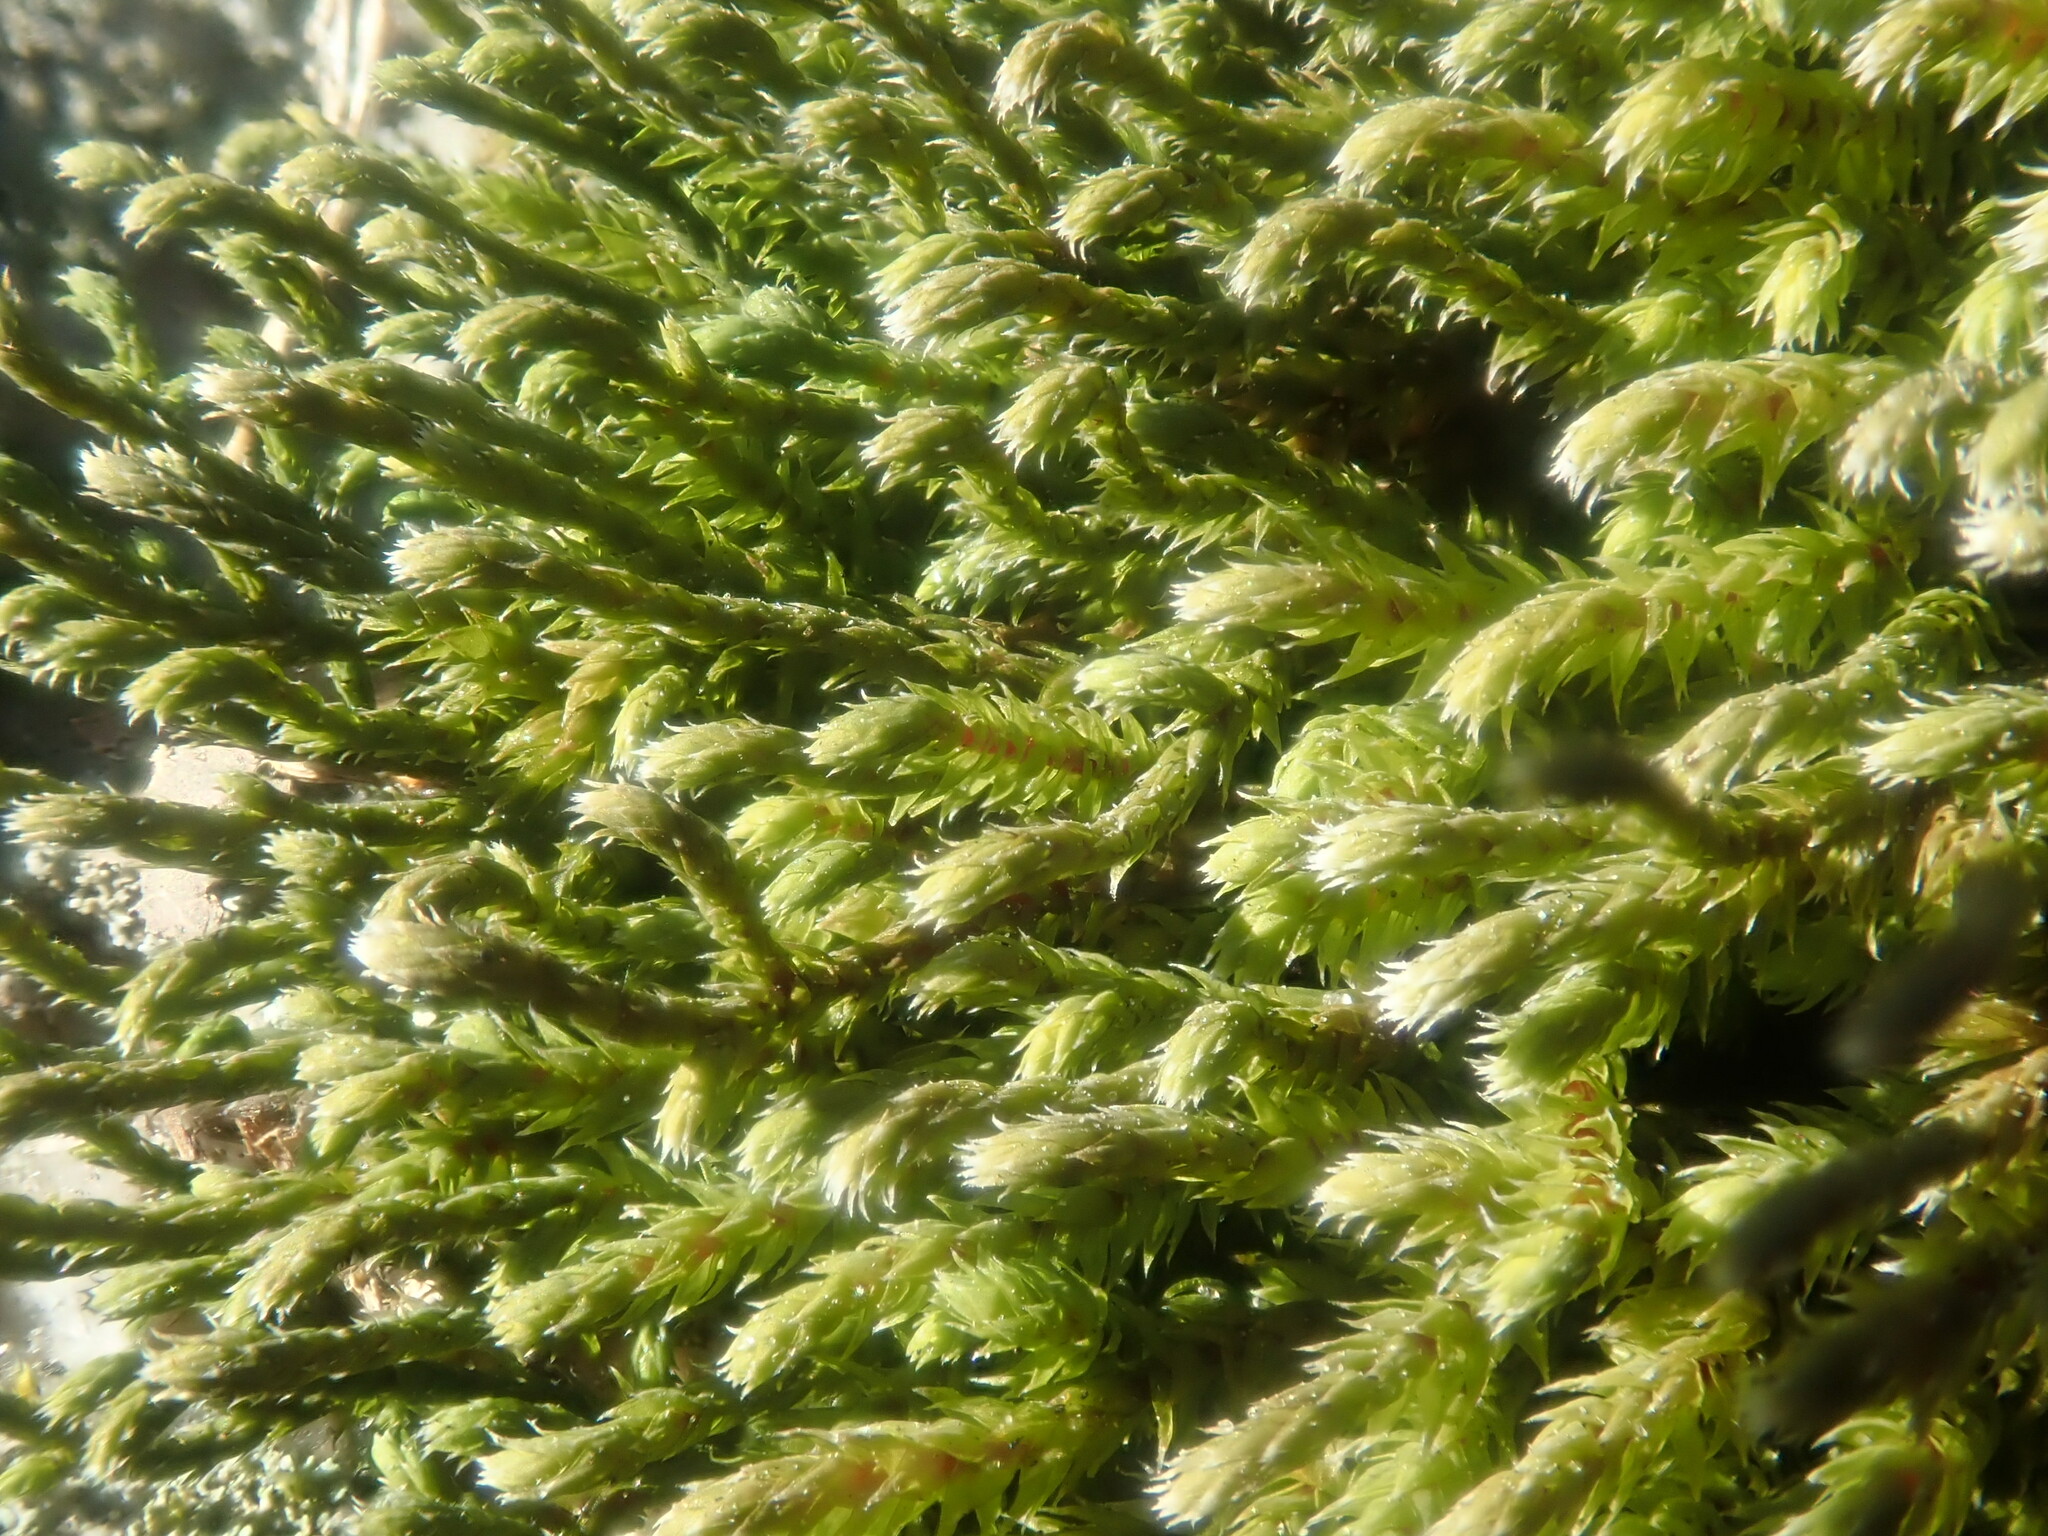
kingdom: Plantae
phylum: Bryophyta
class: Bryopsida
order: Hedwigiales
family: Hedwigiaceae
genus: Hedwigia
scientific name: Hedwigia ciliata
